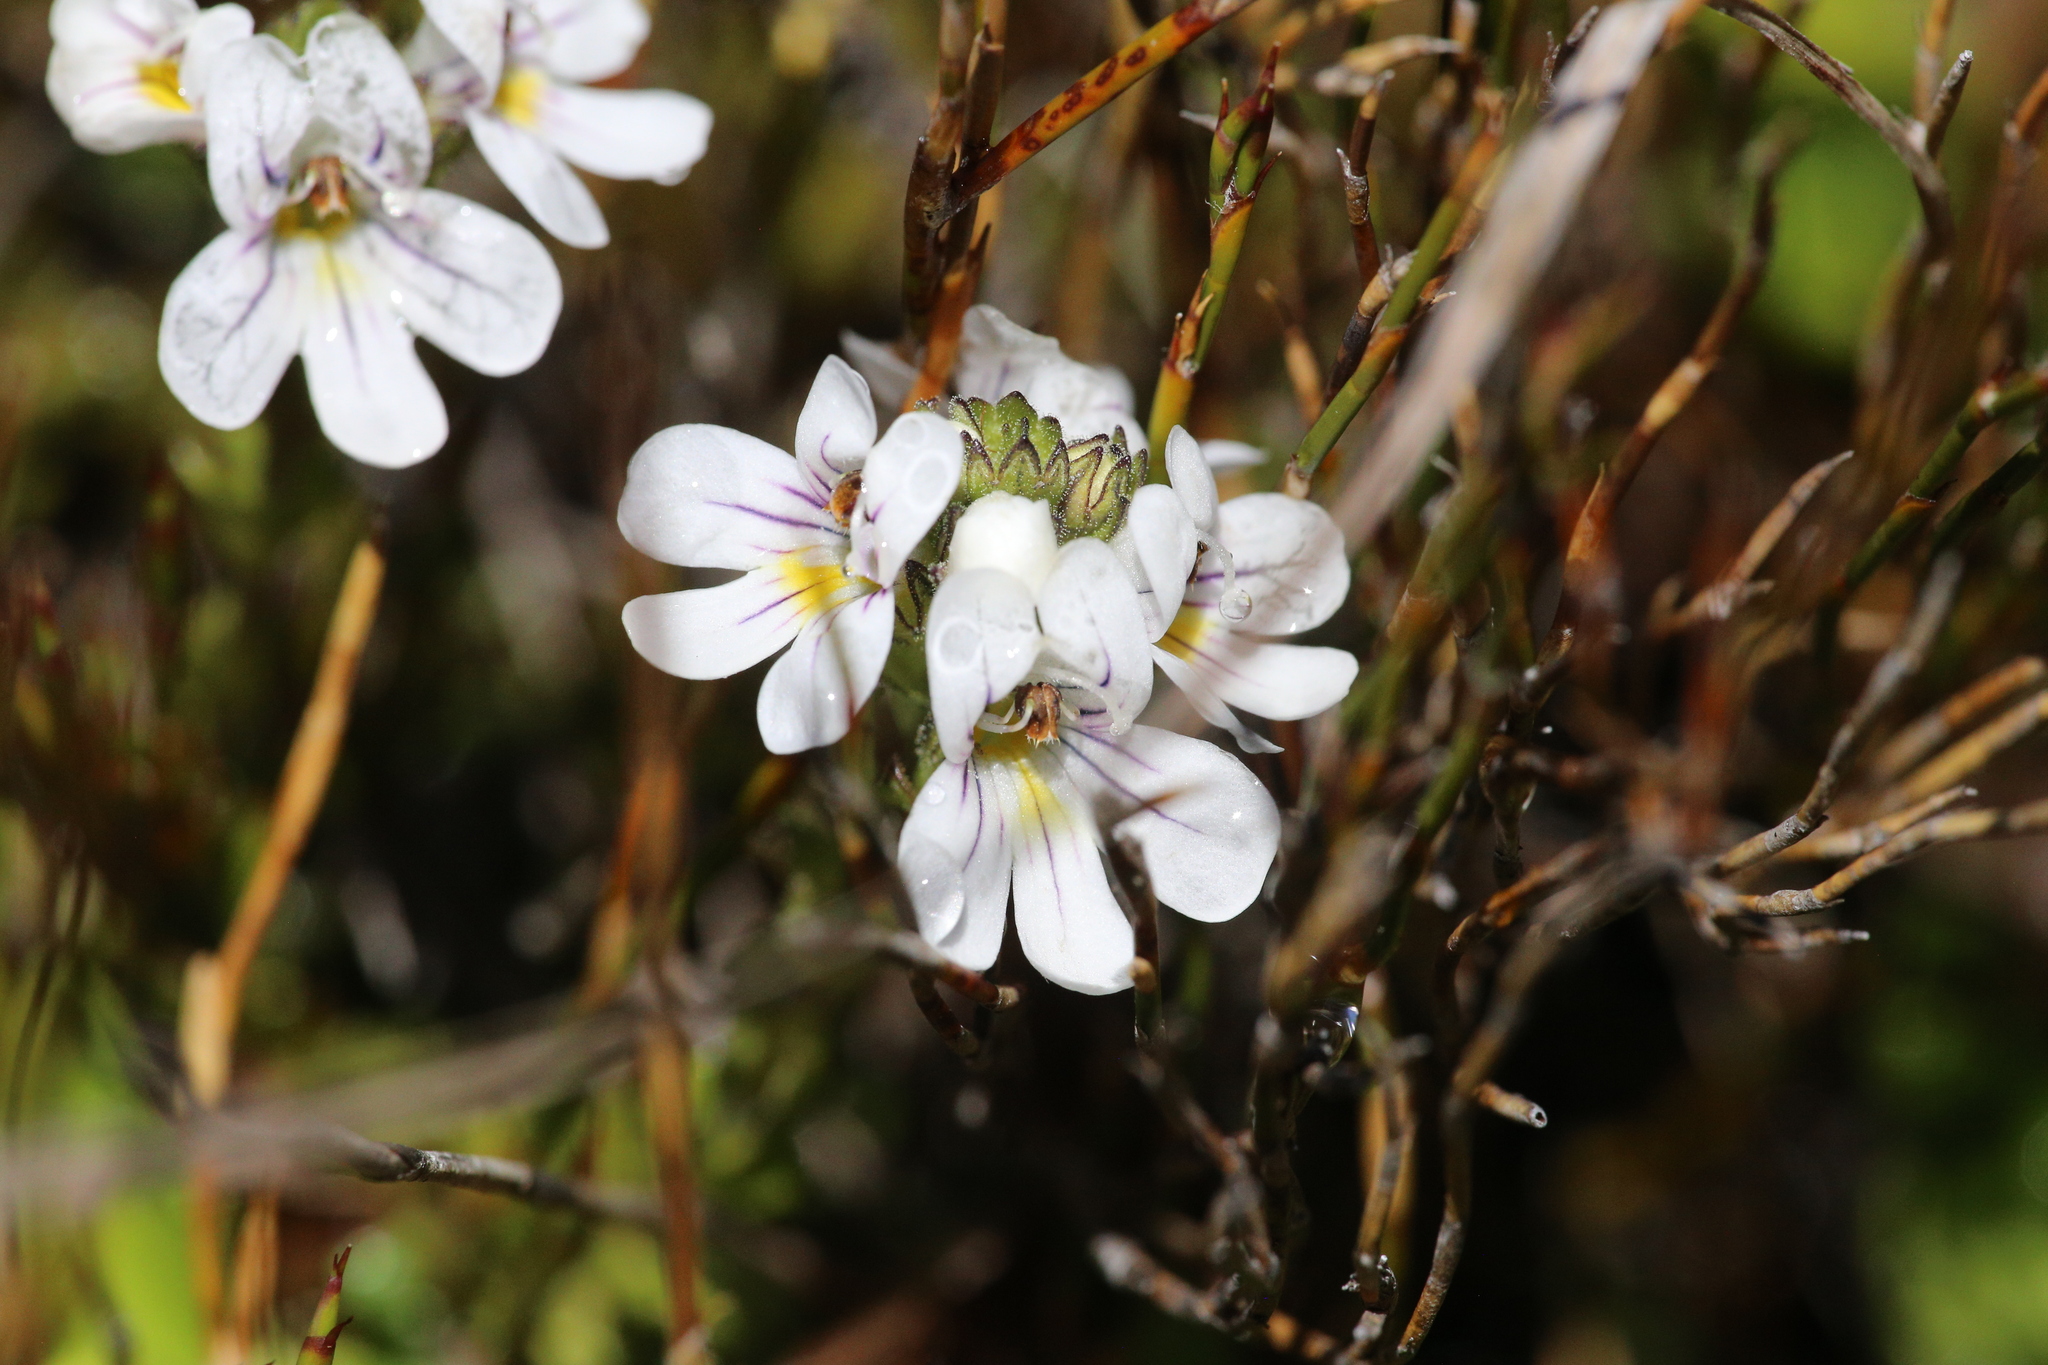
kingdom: Plantae
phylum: Tracheophyta
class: Magnoliopsida
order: Lamiales
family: Orobanchaceae
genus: Euphrasia
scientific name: Euphrasia gibbsiae
